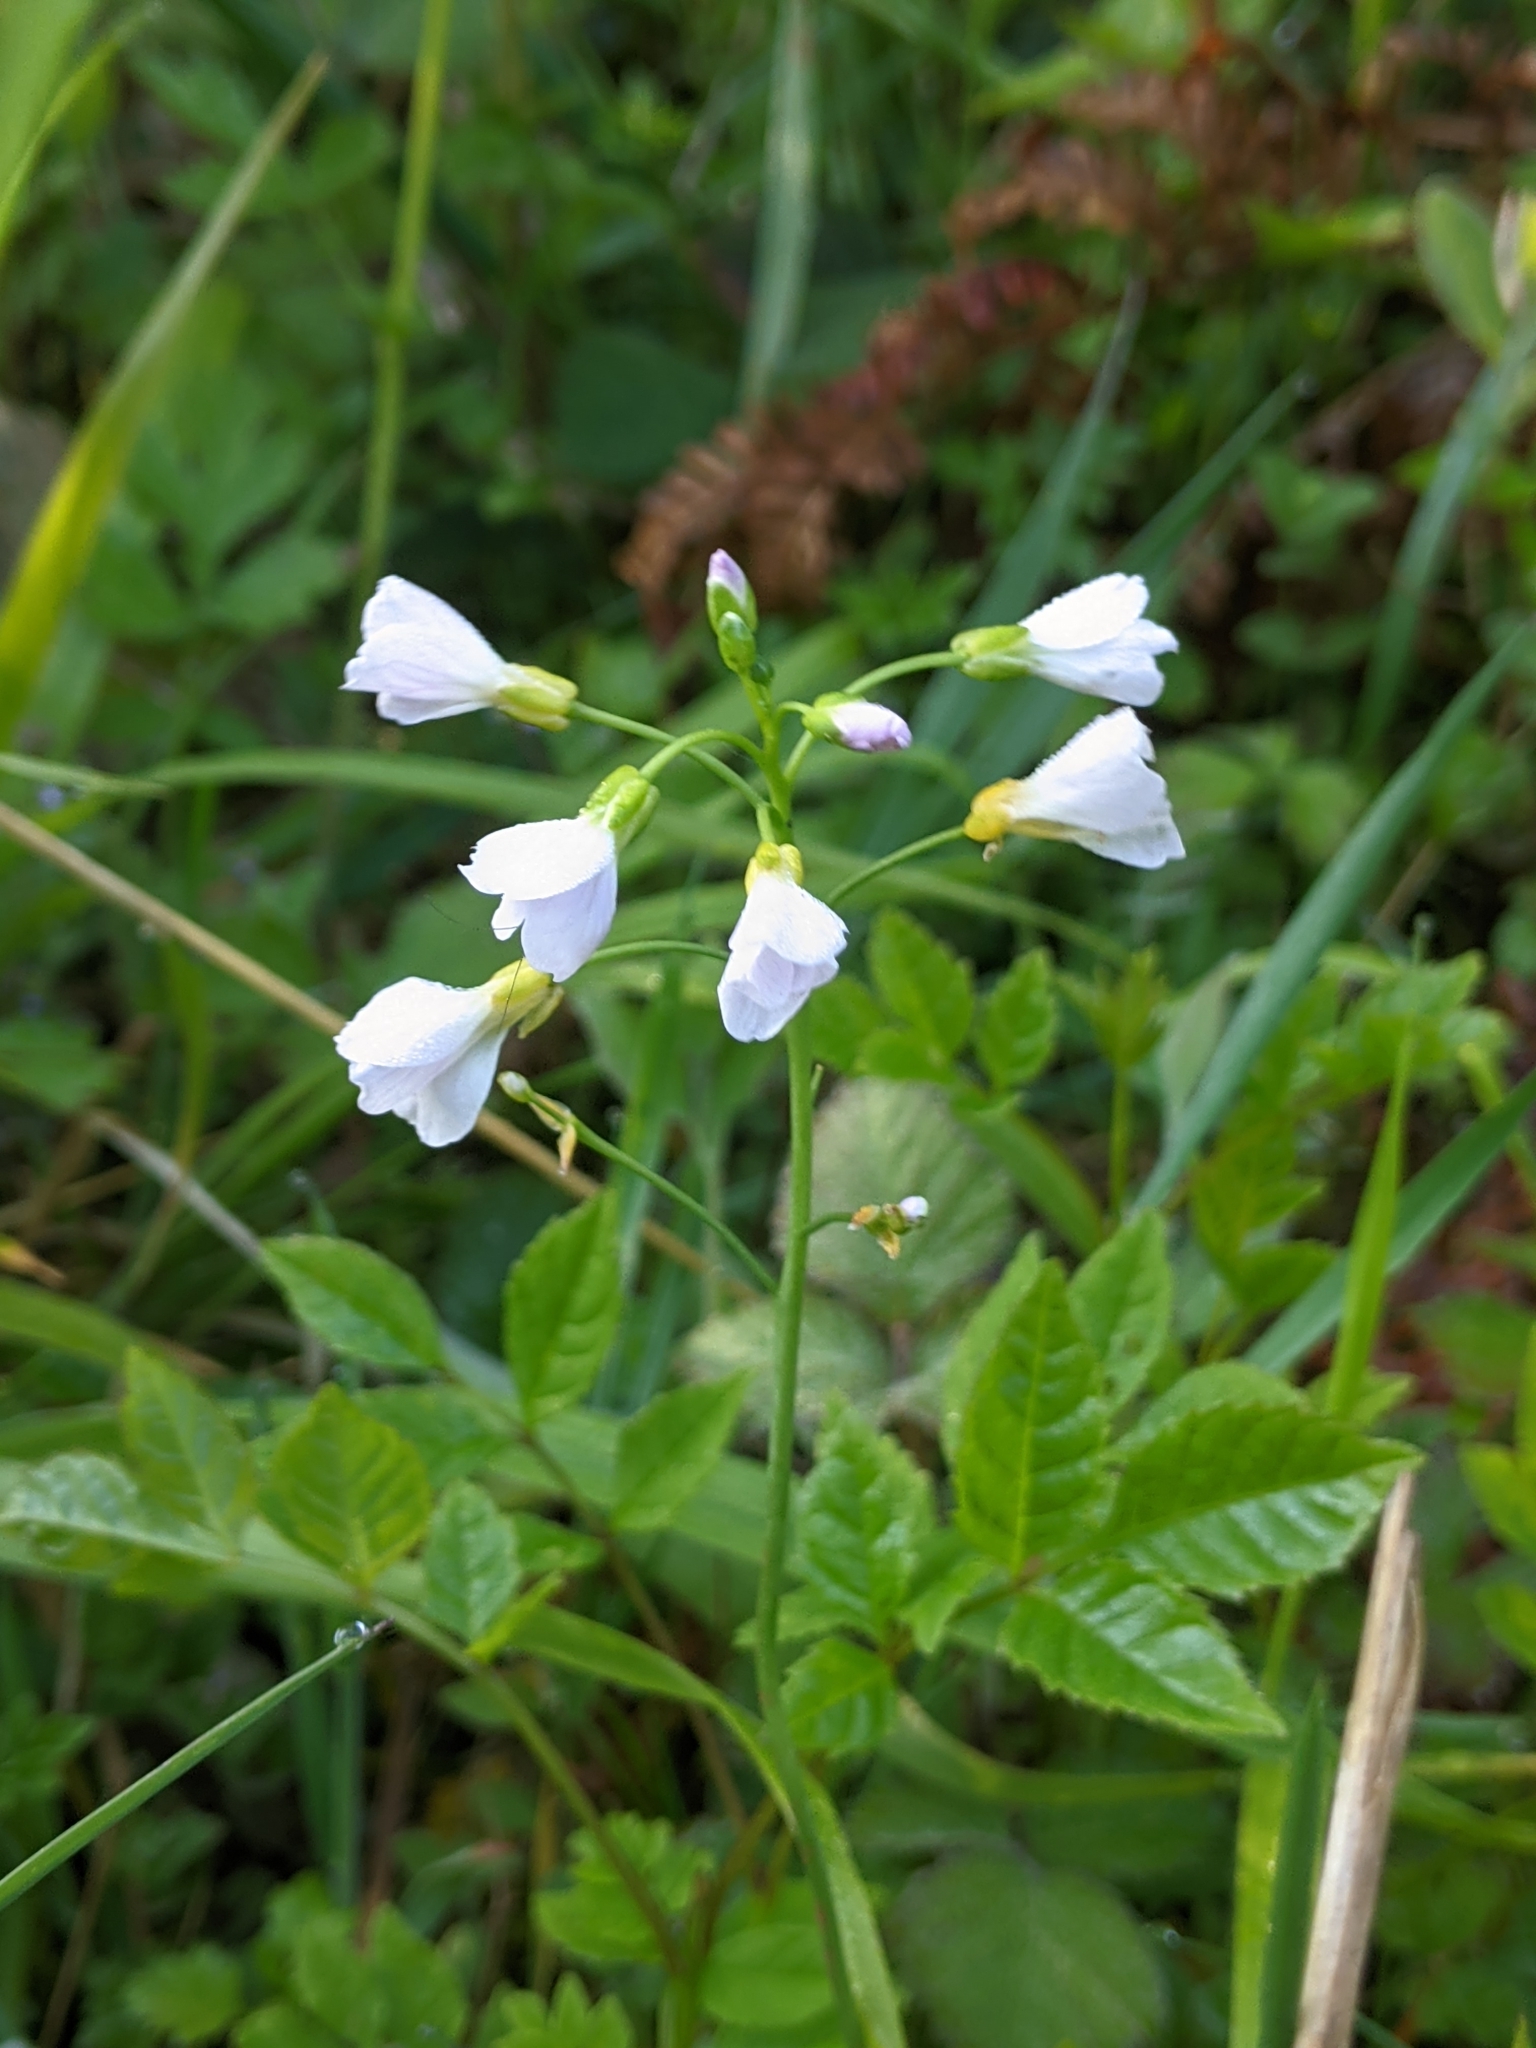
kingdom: Plantae
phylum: Tracheophyta
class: Magnoliopsida
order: Brassicales
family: Brassicaceae
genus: Cardamine
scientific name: Cardamine pratensis
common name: Cuckoo flower
